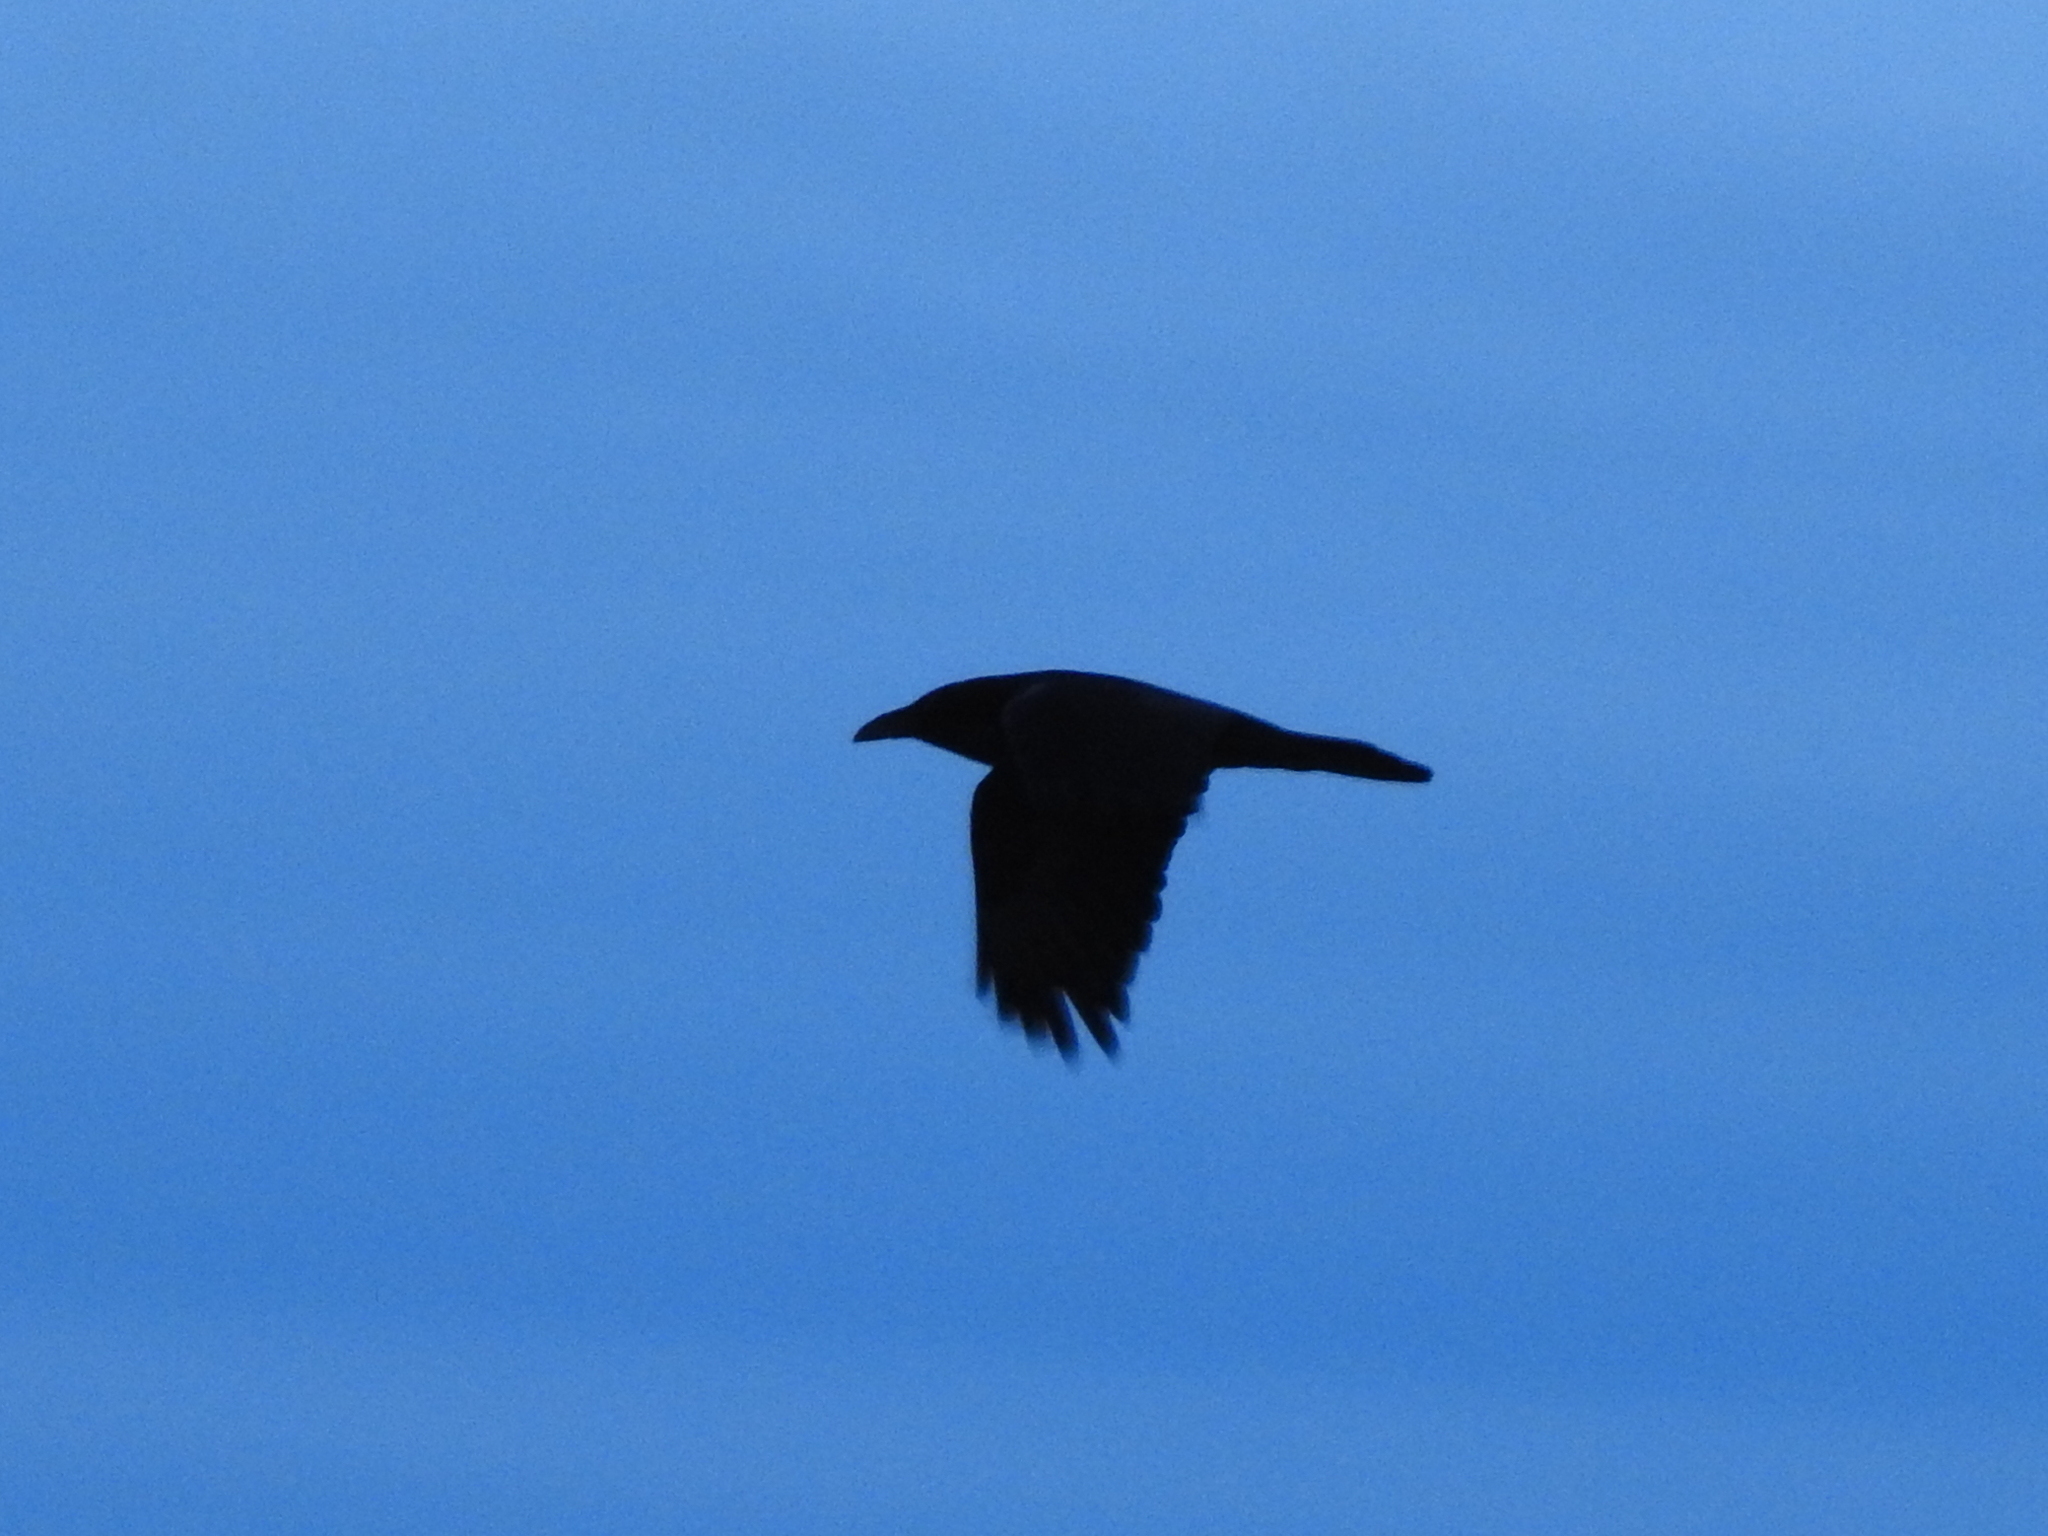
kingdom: Animalia
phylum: Chordata
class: Aves
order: Passeriformes
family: Corvidae
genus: Corvus
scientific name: Corvus corax
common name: Common raven
